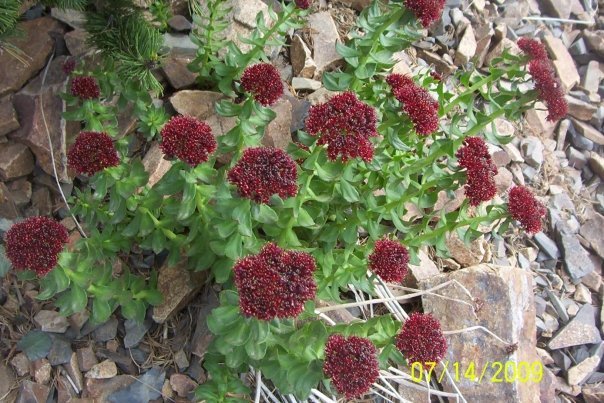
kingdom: Plantae
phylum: Tracheophyta
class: Magnoliopsida
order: Saxifragales
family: Crassulaceae
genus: Rhodiola
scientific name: Rhodiola integrifolia
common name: Western roseroot
